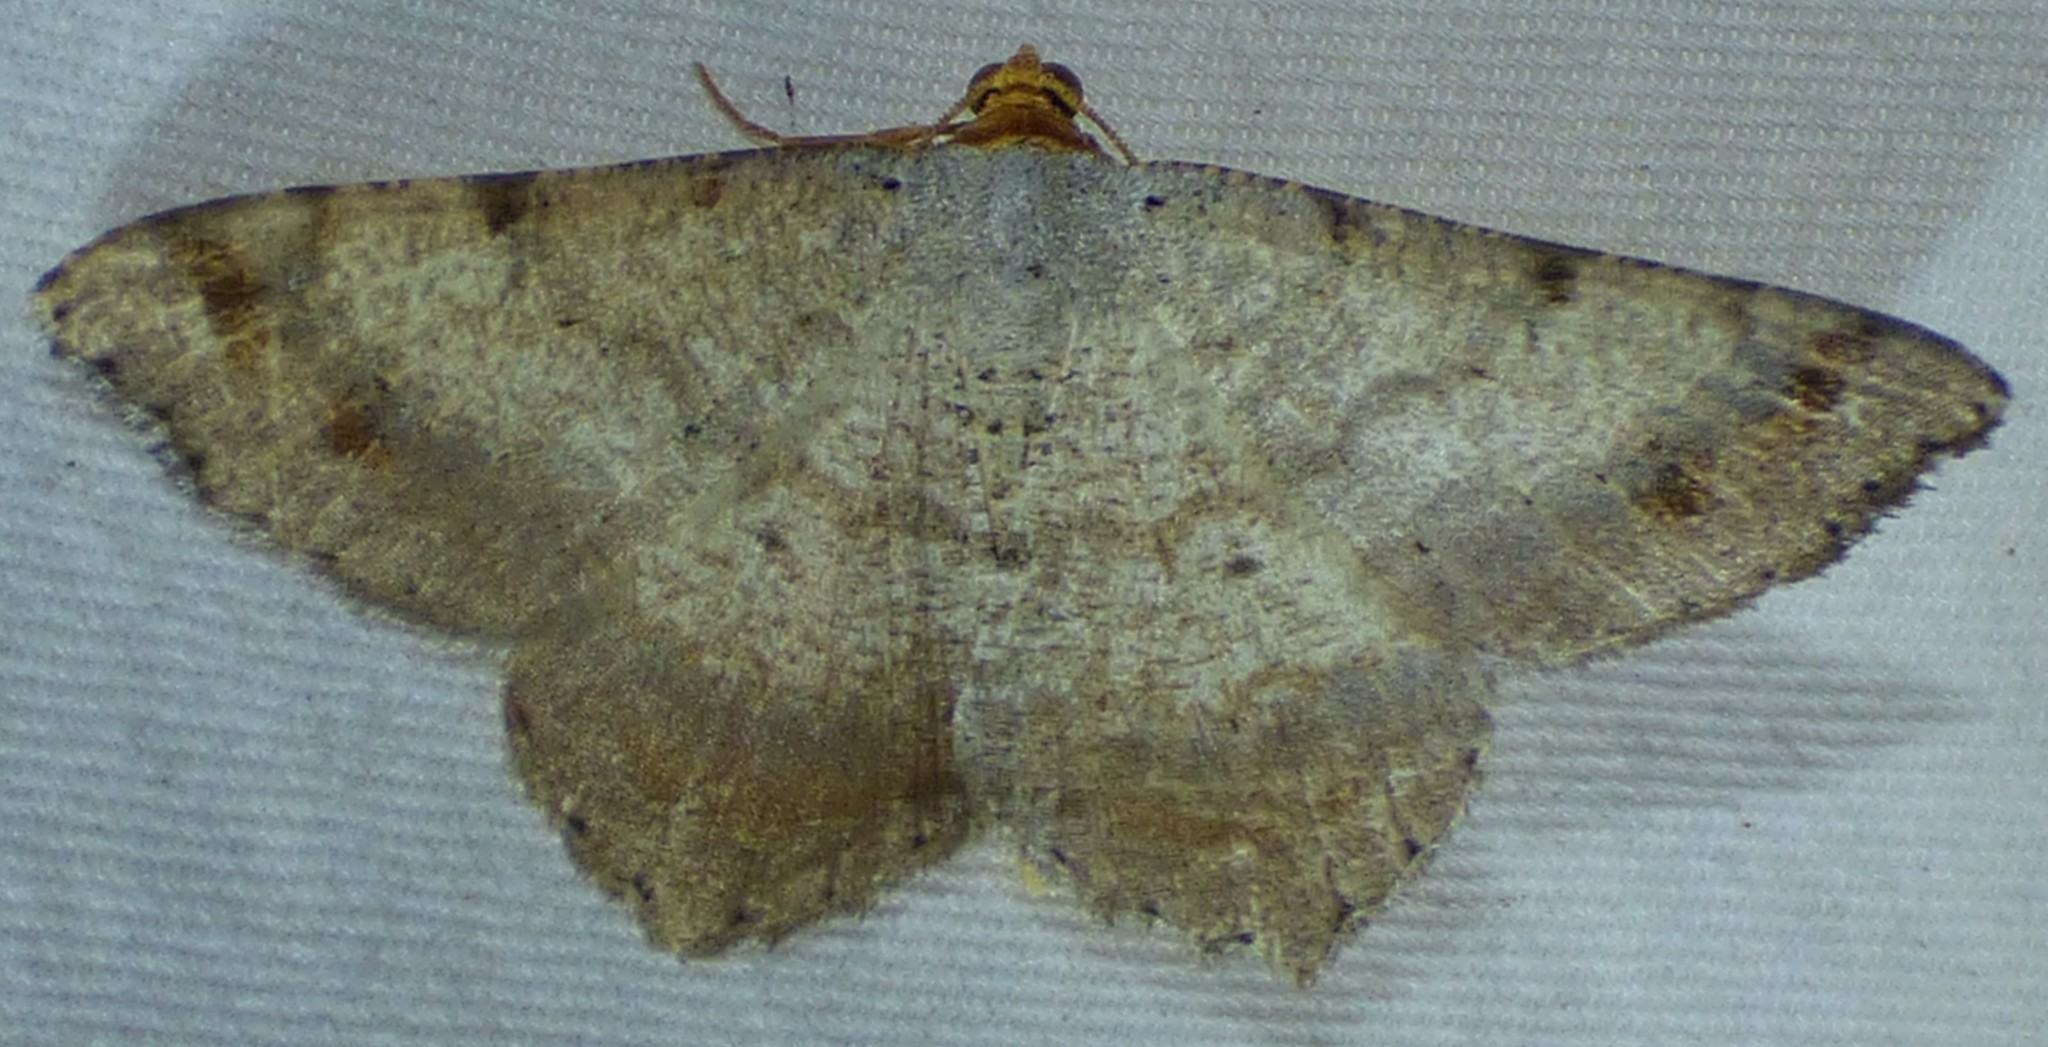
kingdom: Animalia
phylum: Arthropoda
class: Insecta
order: Lepidoptera
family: Geometridae
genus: Macaria
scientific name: Macaria bicolorata
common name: Dingy angle
